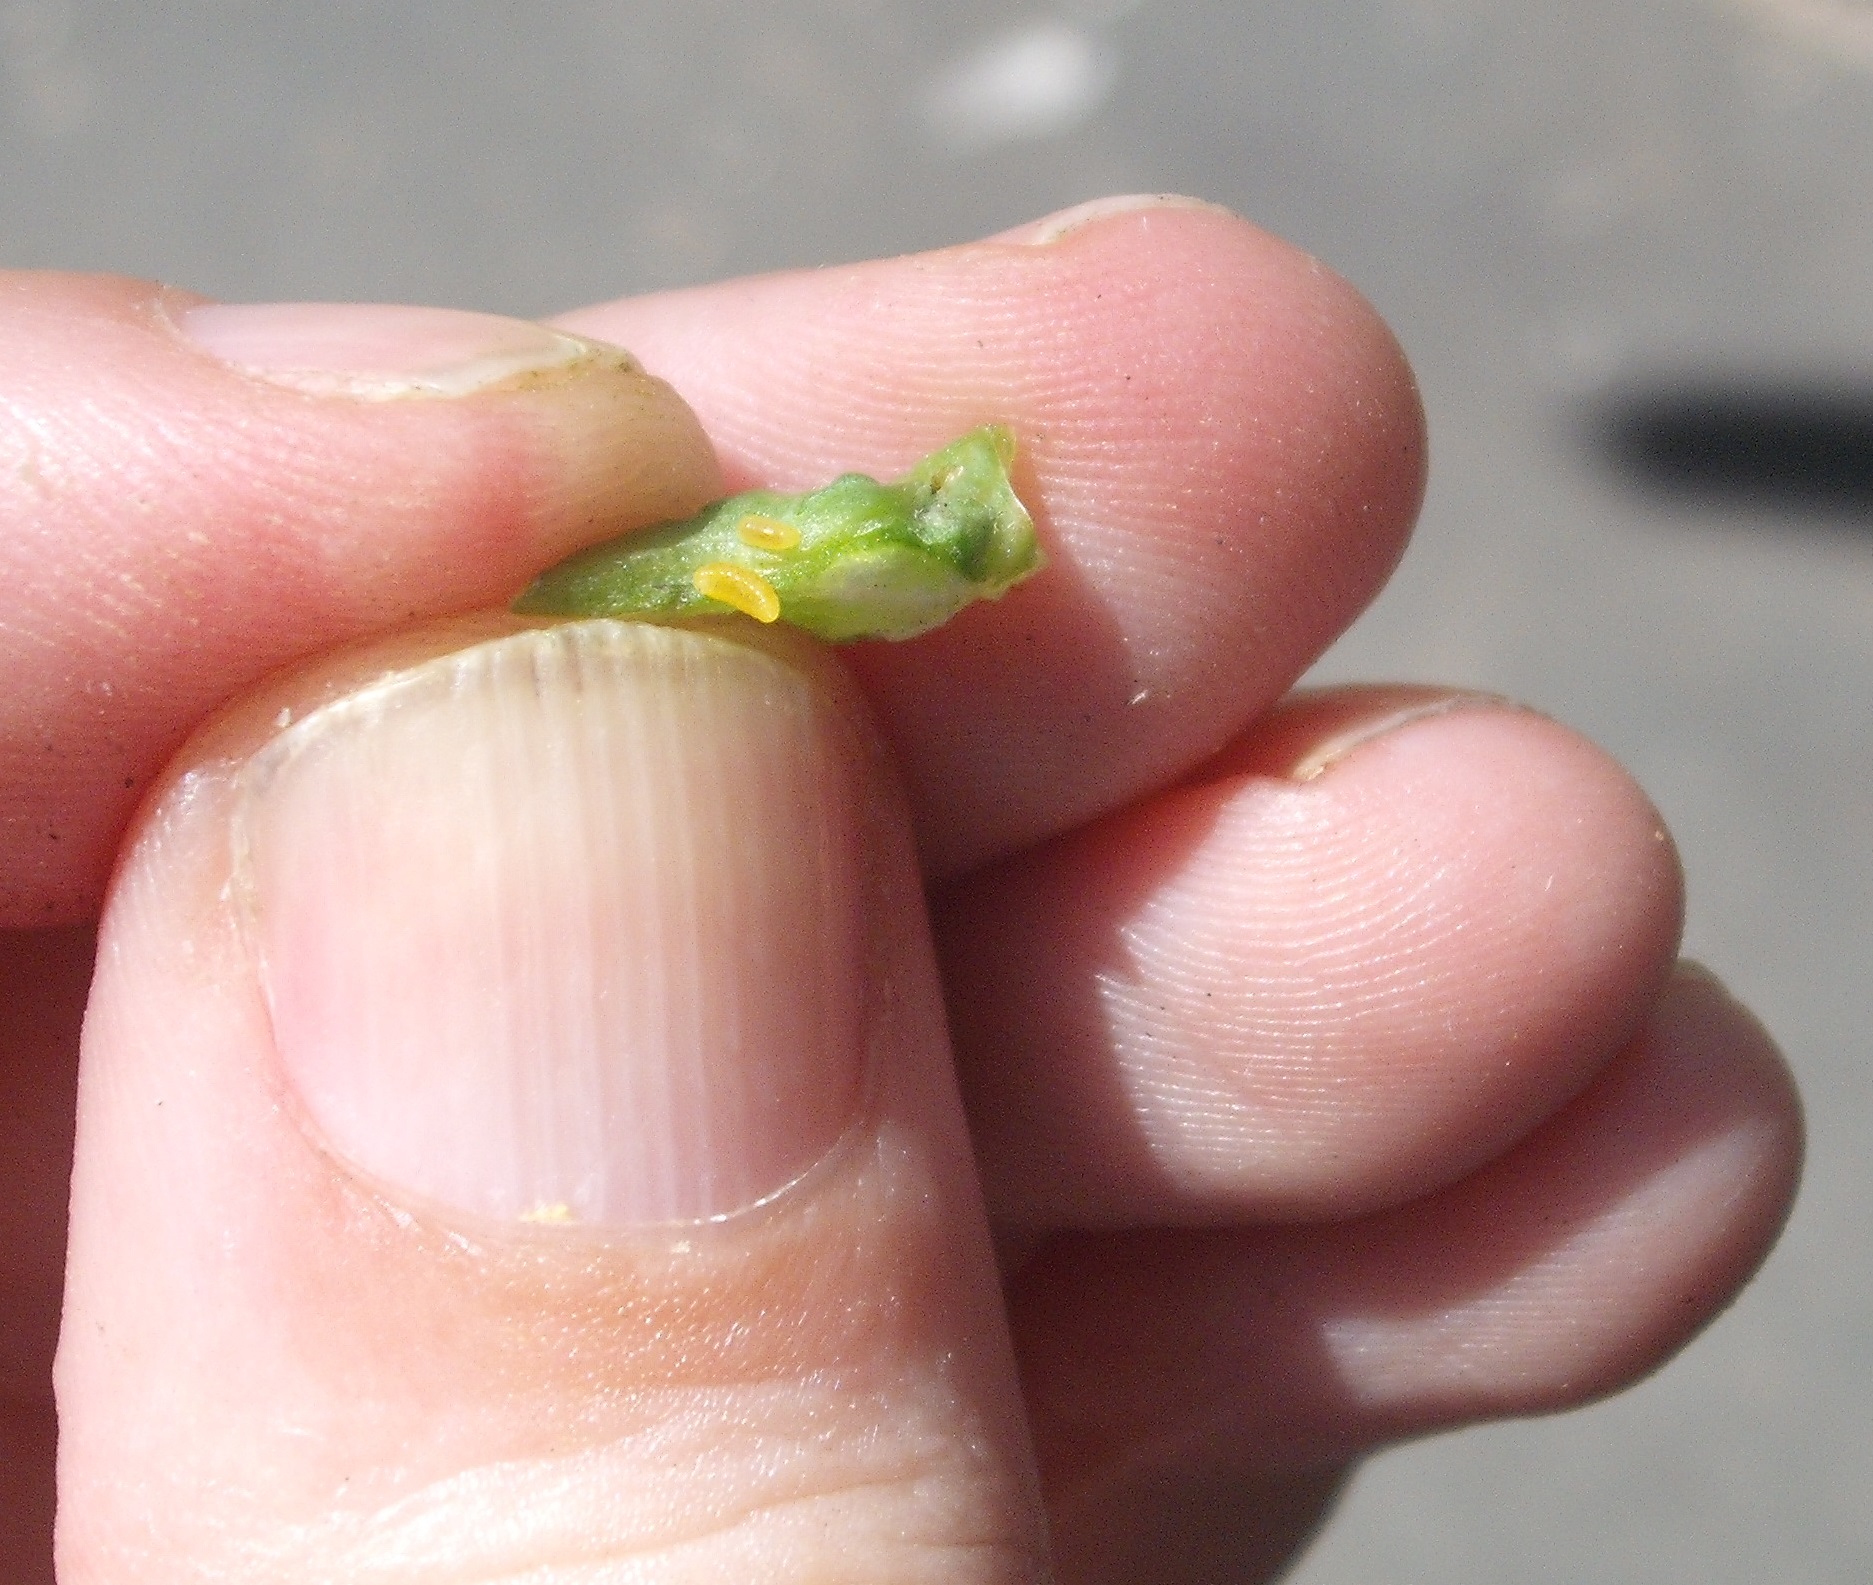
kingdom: Animalia
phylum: Arthropoda
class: Insecta
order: Hymenoptera
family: Cynipidae
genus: Phanacis
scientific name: Phanacis hypochoeridis
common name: Gall wasp
